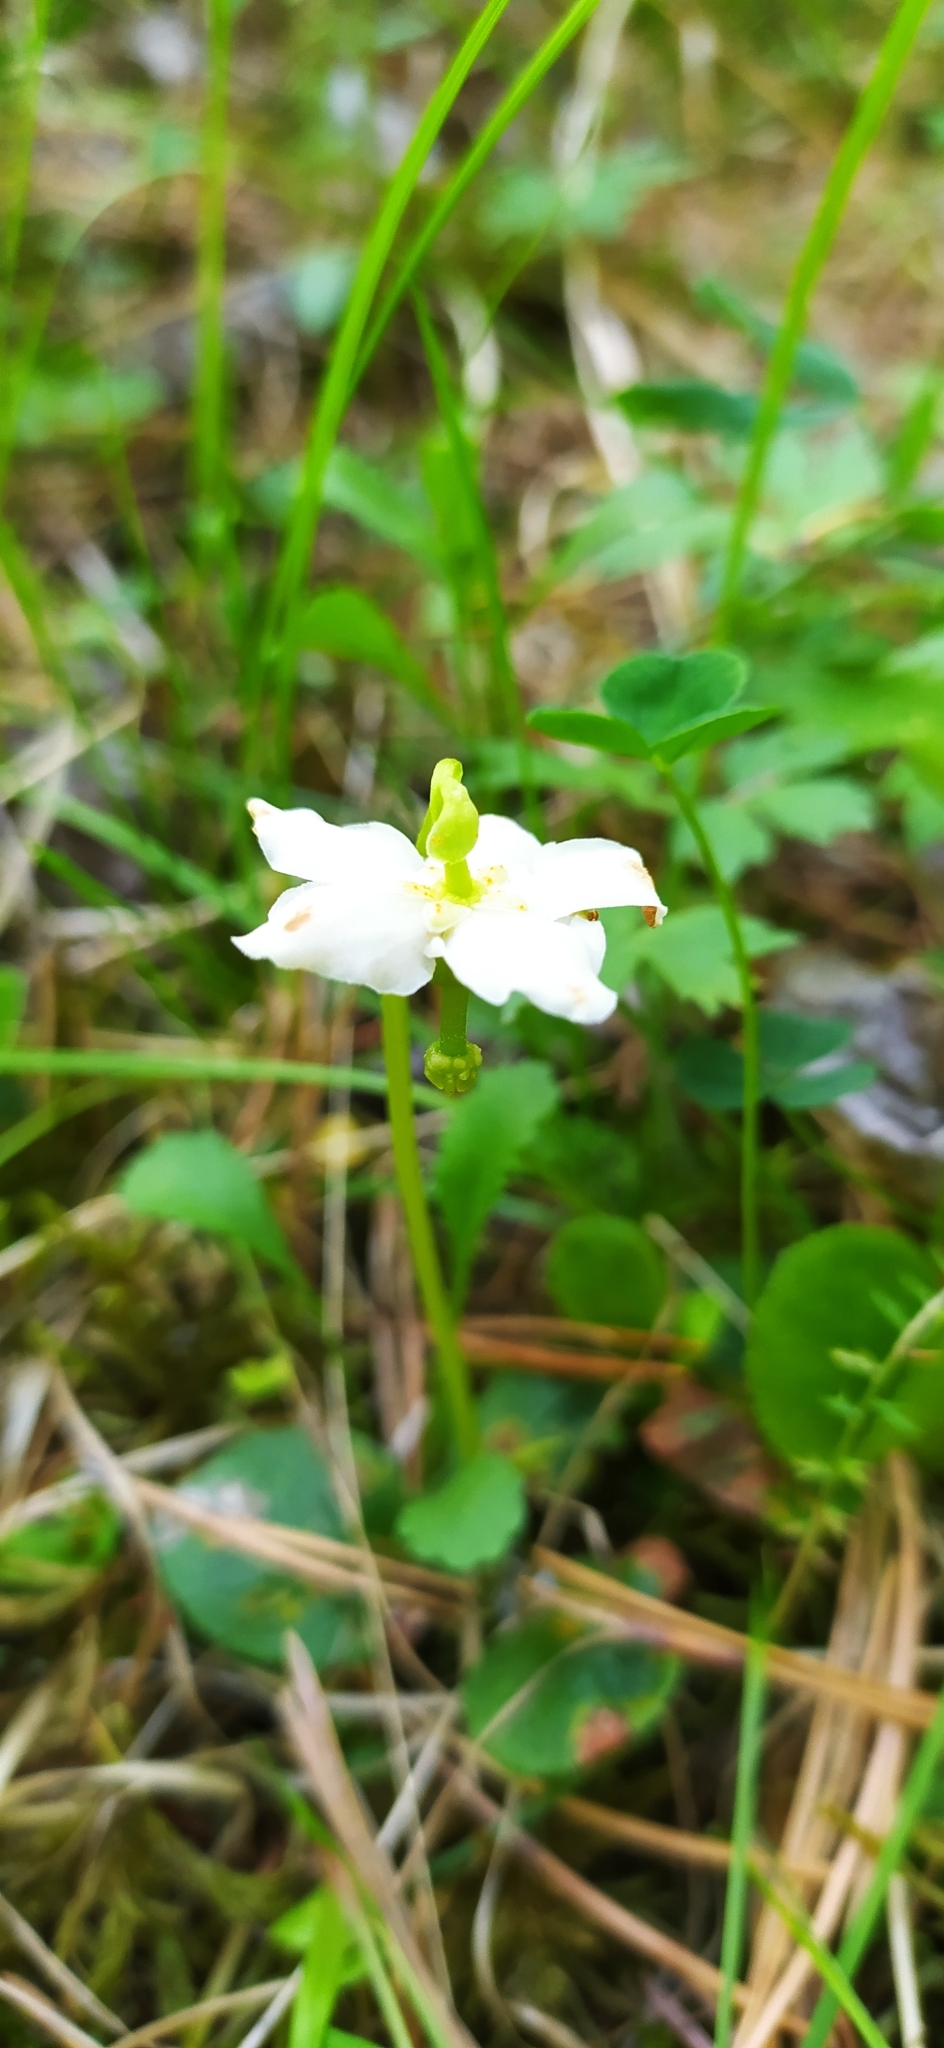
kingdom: Plantae
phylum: Tracheophyta
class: Magnoliopsida
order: Ericales
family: Ericaceae
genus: Moneses
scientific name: Moneses uniflora
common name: One-flowered wintergreen
